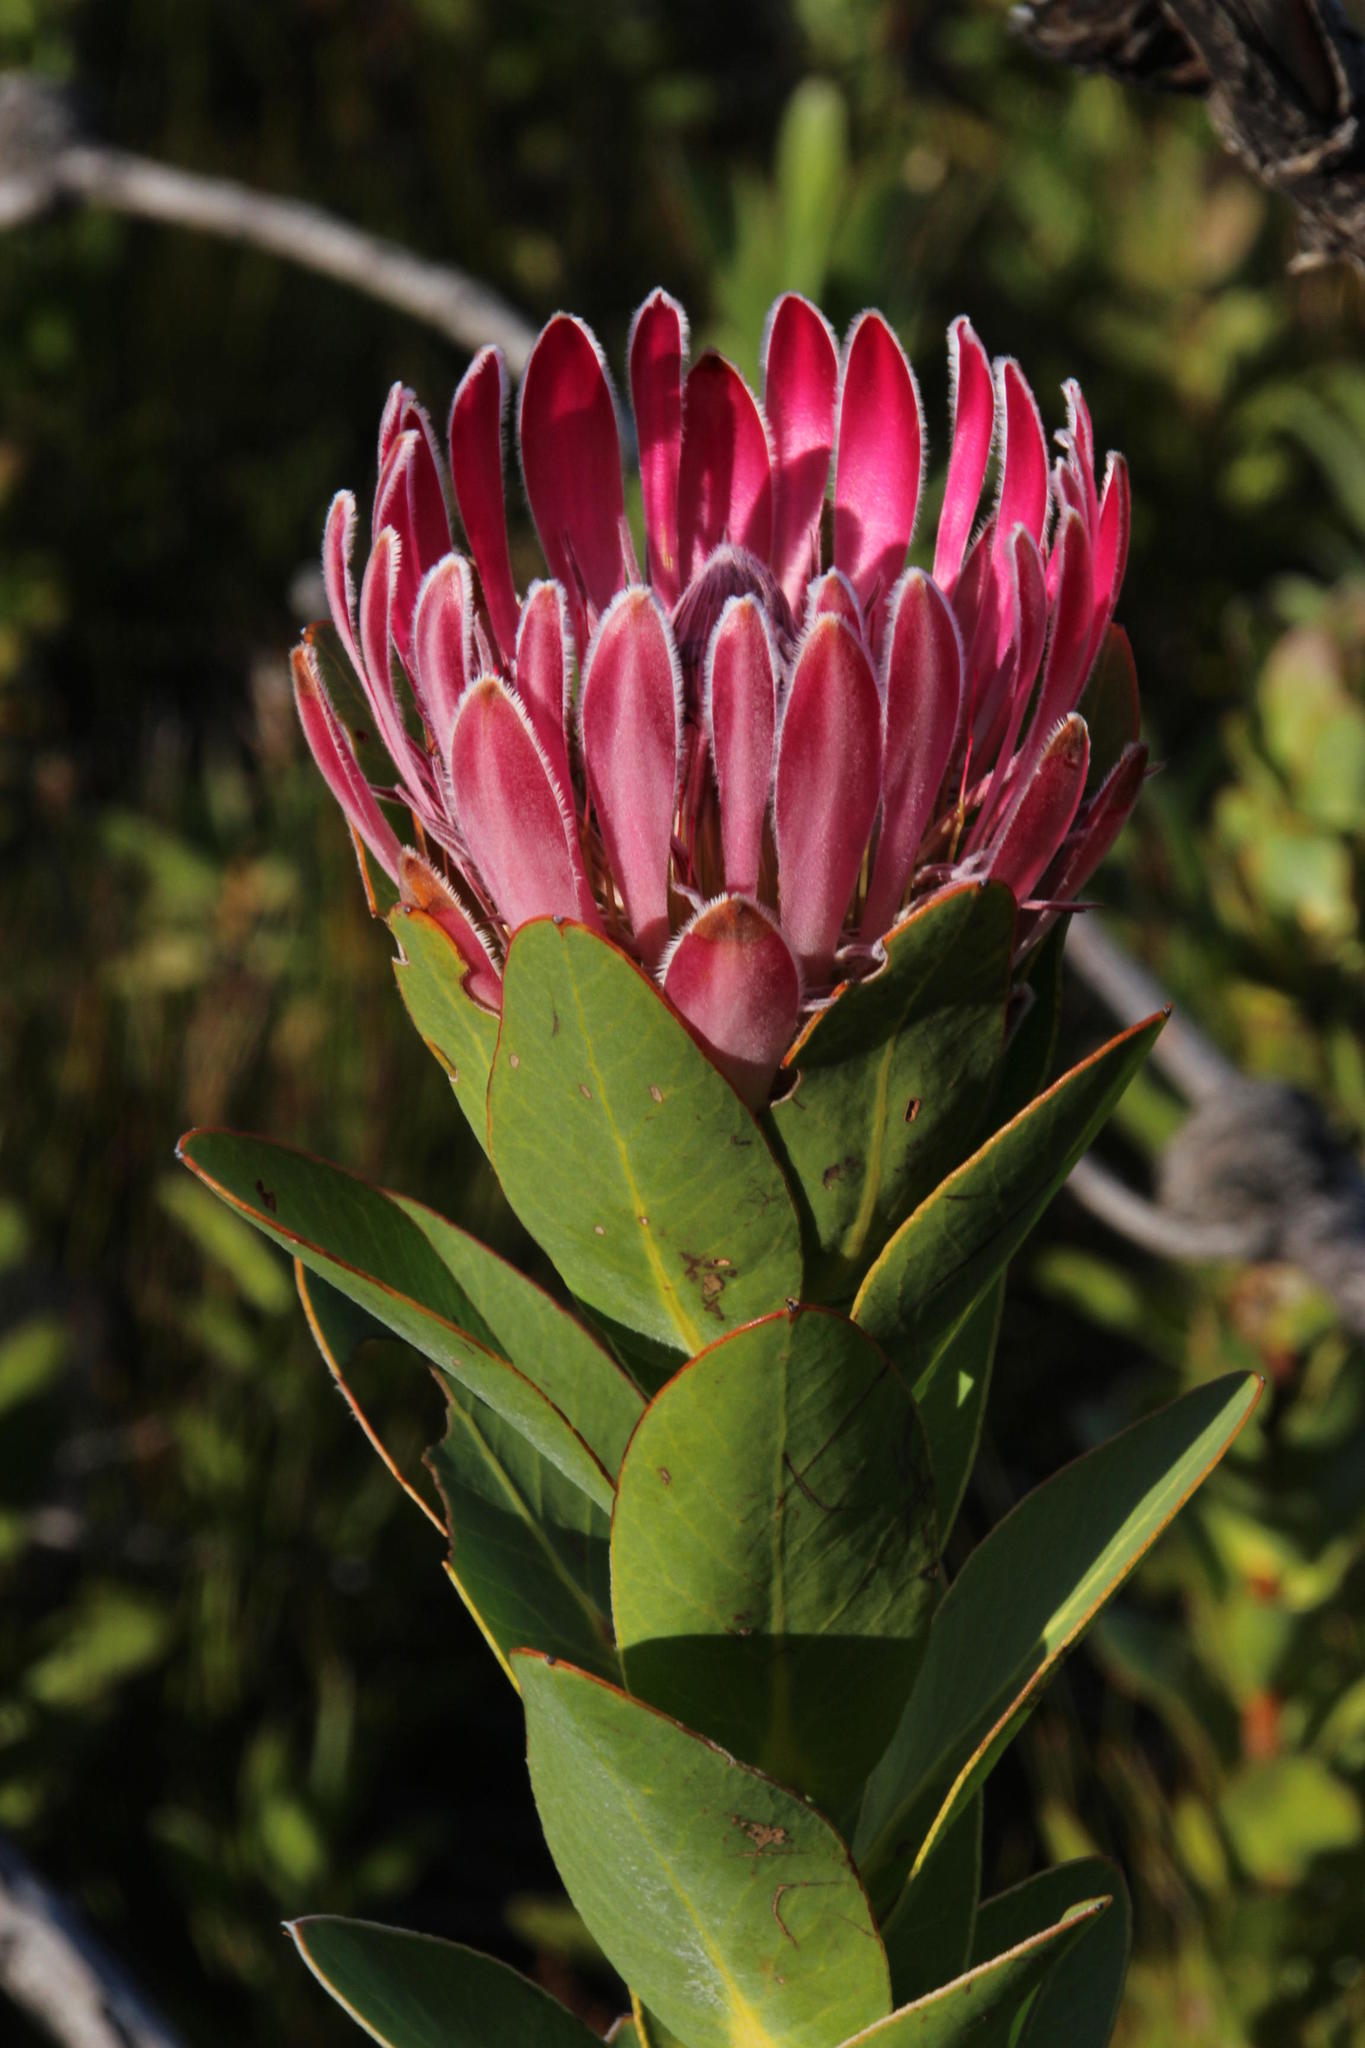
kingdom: Plantae
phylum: Tracheophyta
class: Magnoliopsida
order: Proteales
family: Proteaceae
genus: Protea
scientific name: Protea compacta
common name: Bot river protea
